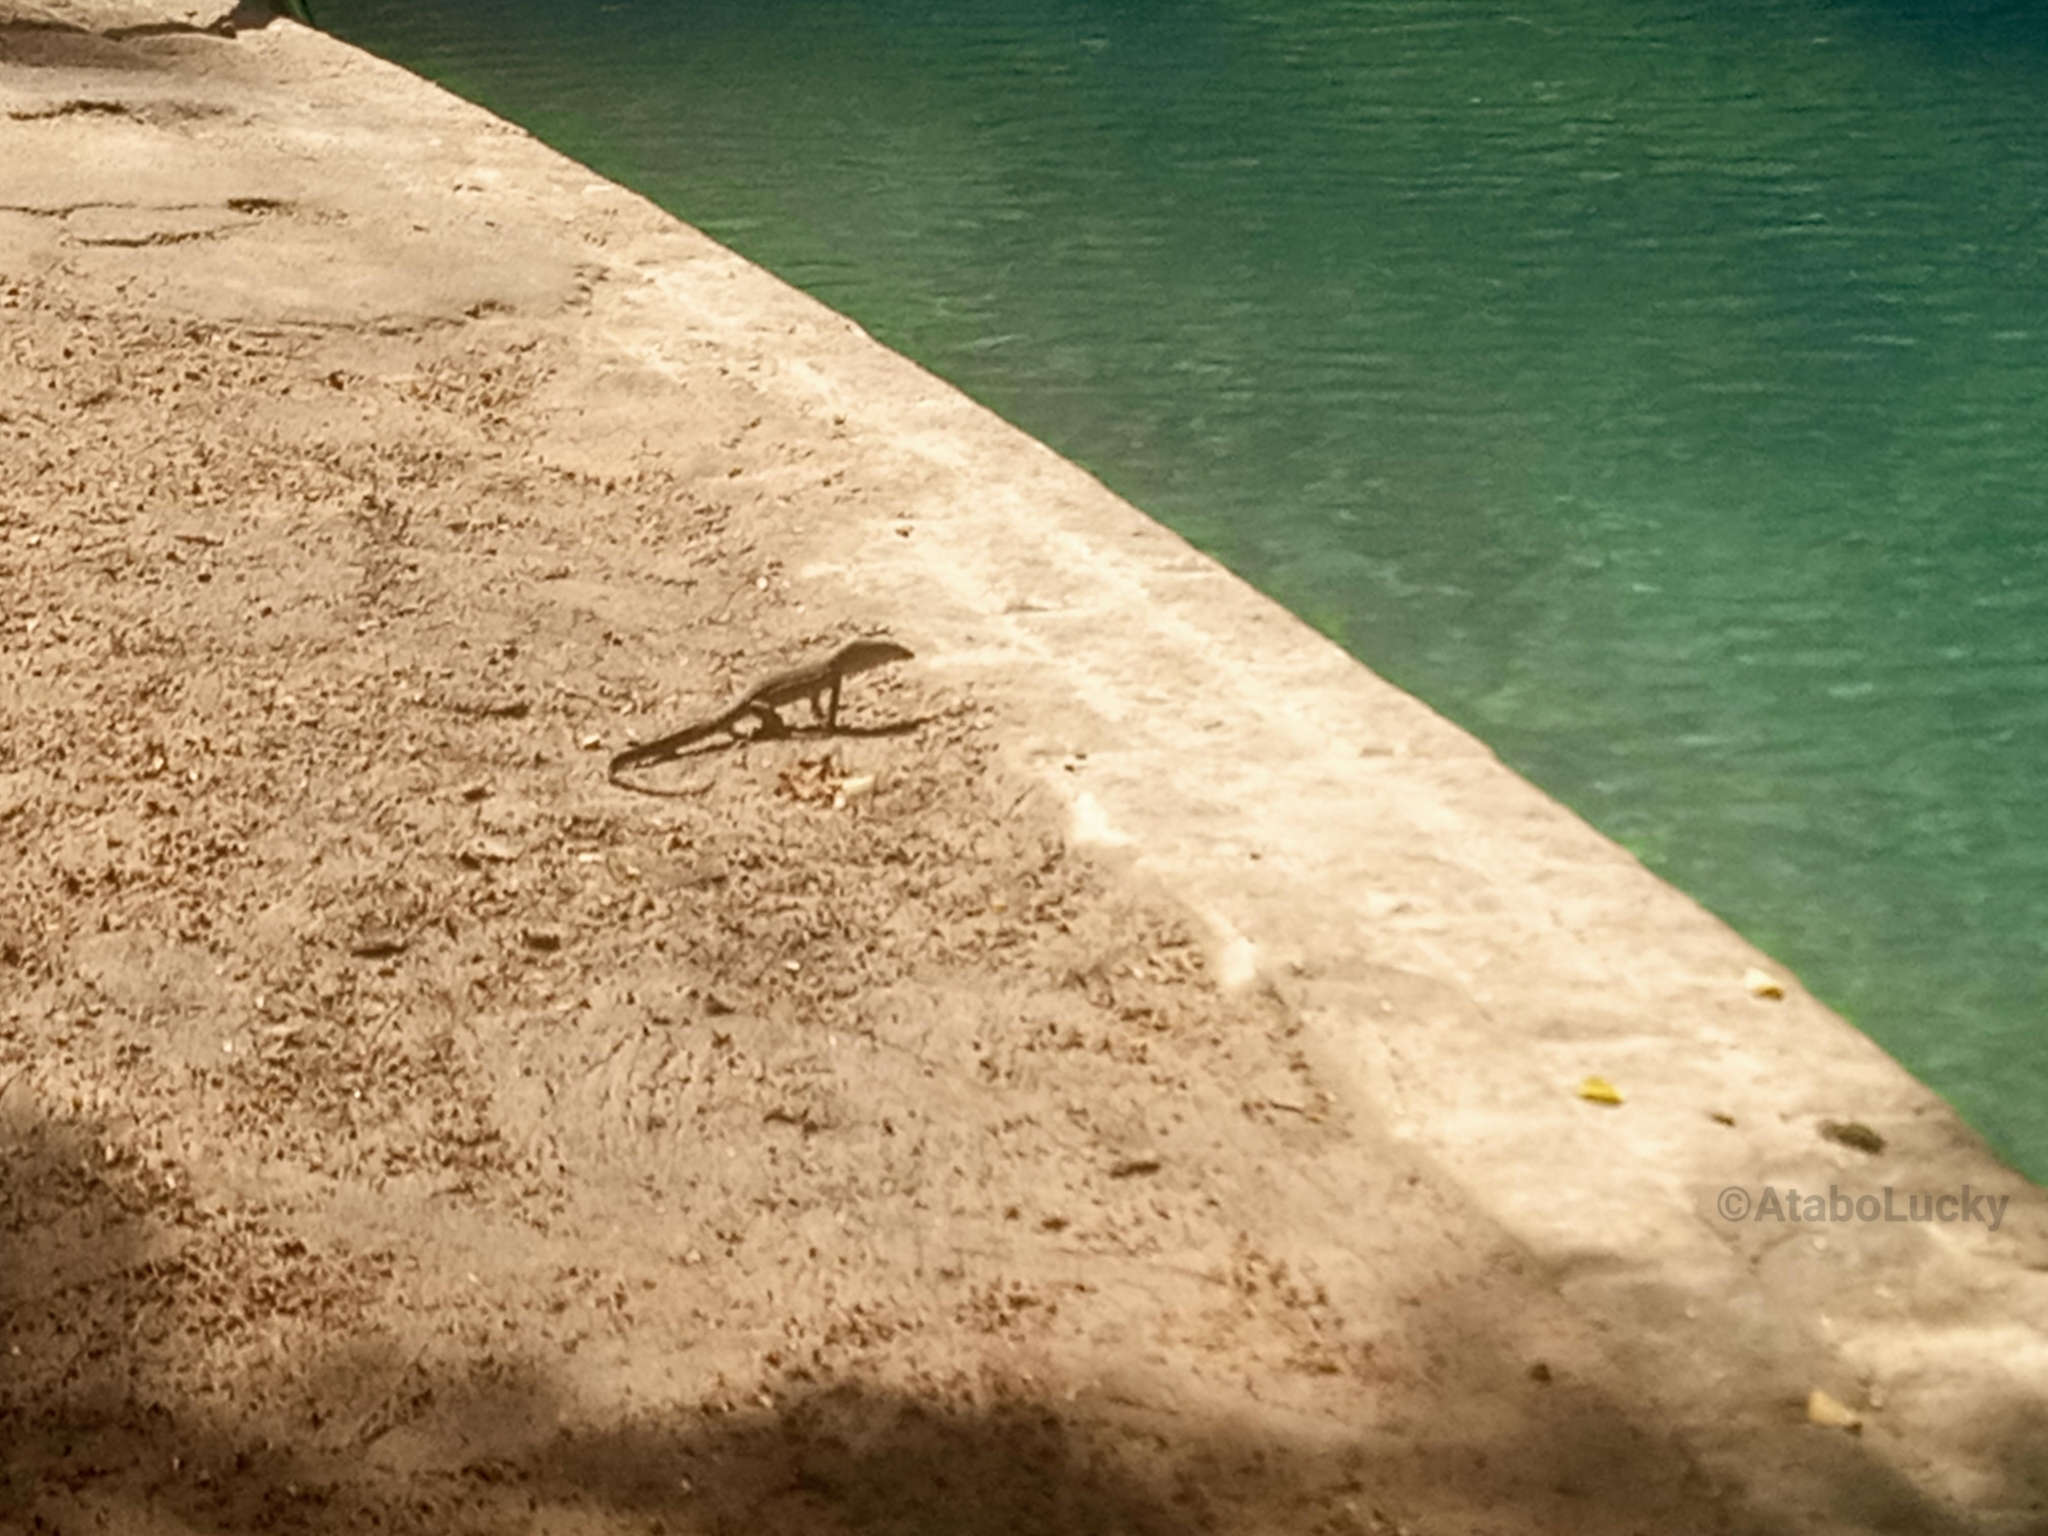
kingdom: Animalia
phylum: Chordata
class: Squamata
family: Varanidae
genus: Varanus
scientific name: Varanus niloticus
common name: Nile monitor
